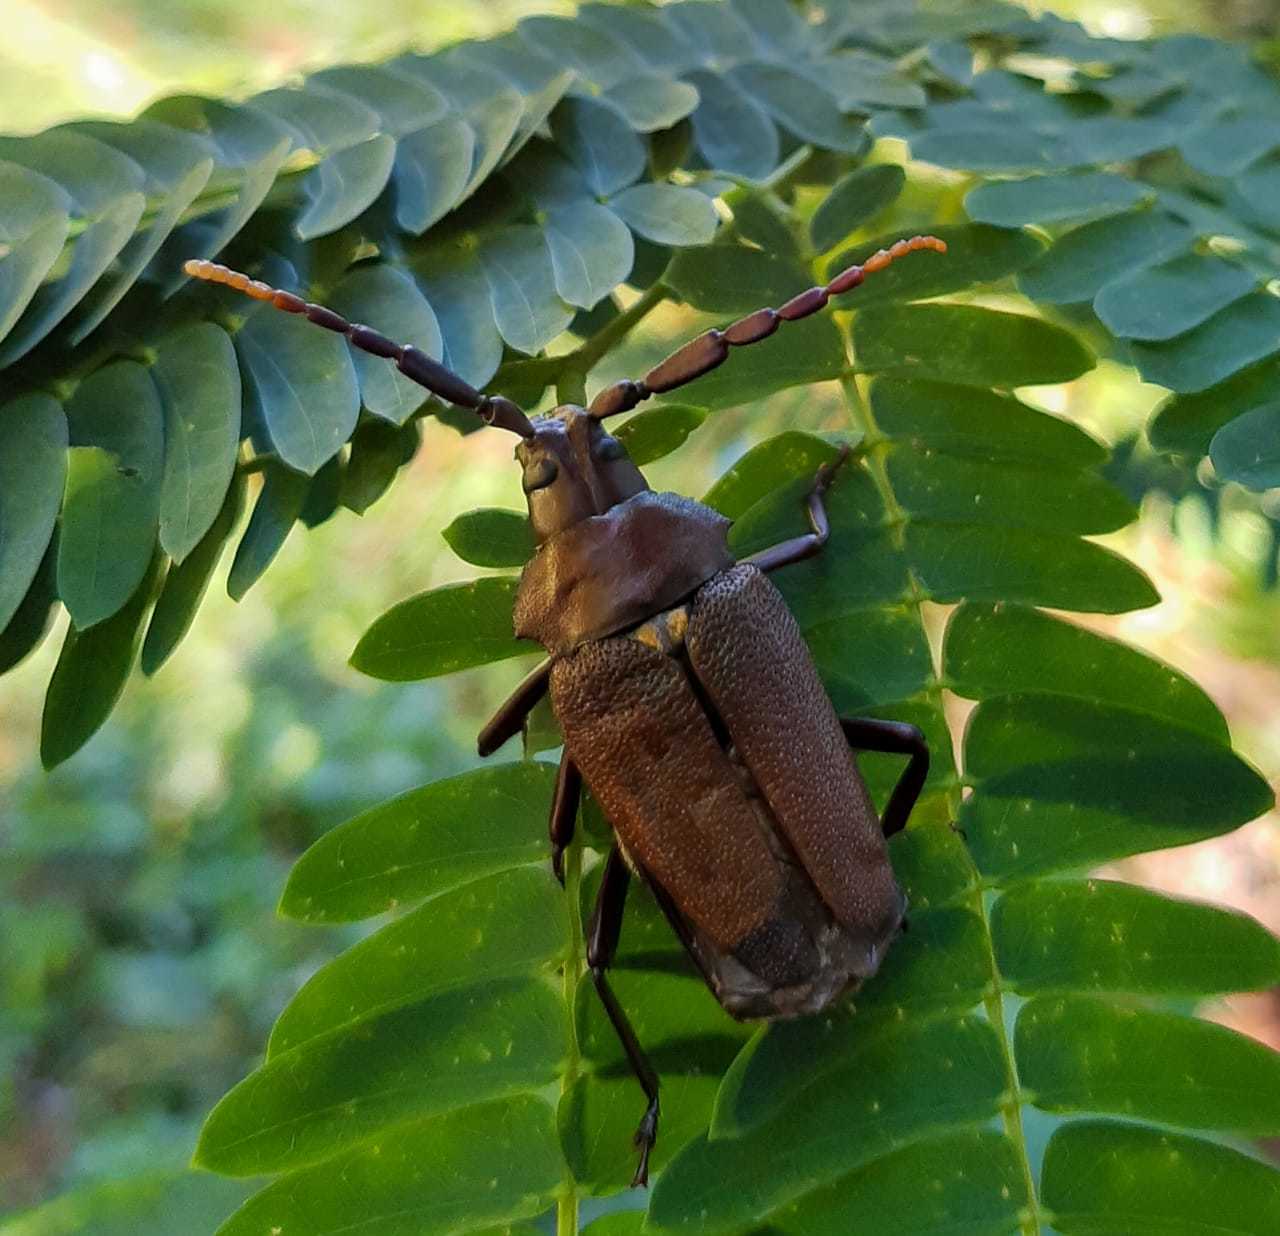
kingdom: Animalia
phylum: Arthropoda
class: Insecta
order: Coleoptera
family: Cerambycidae
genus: Praemallaspis
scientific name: Praemallaspis leucaspis
